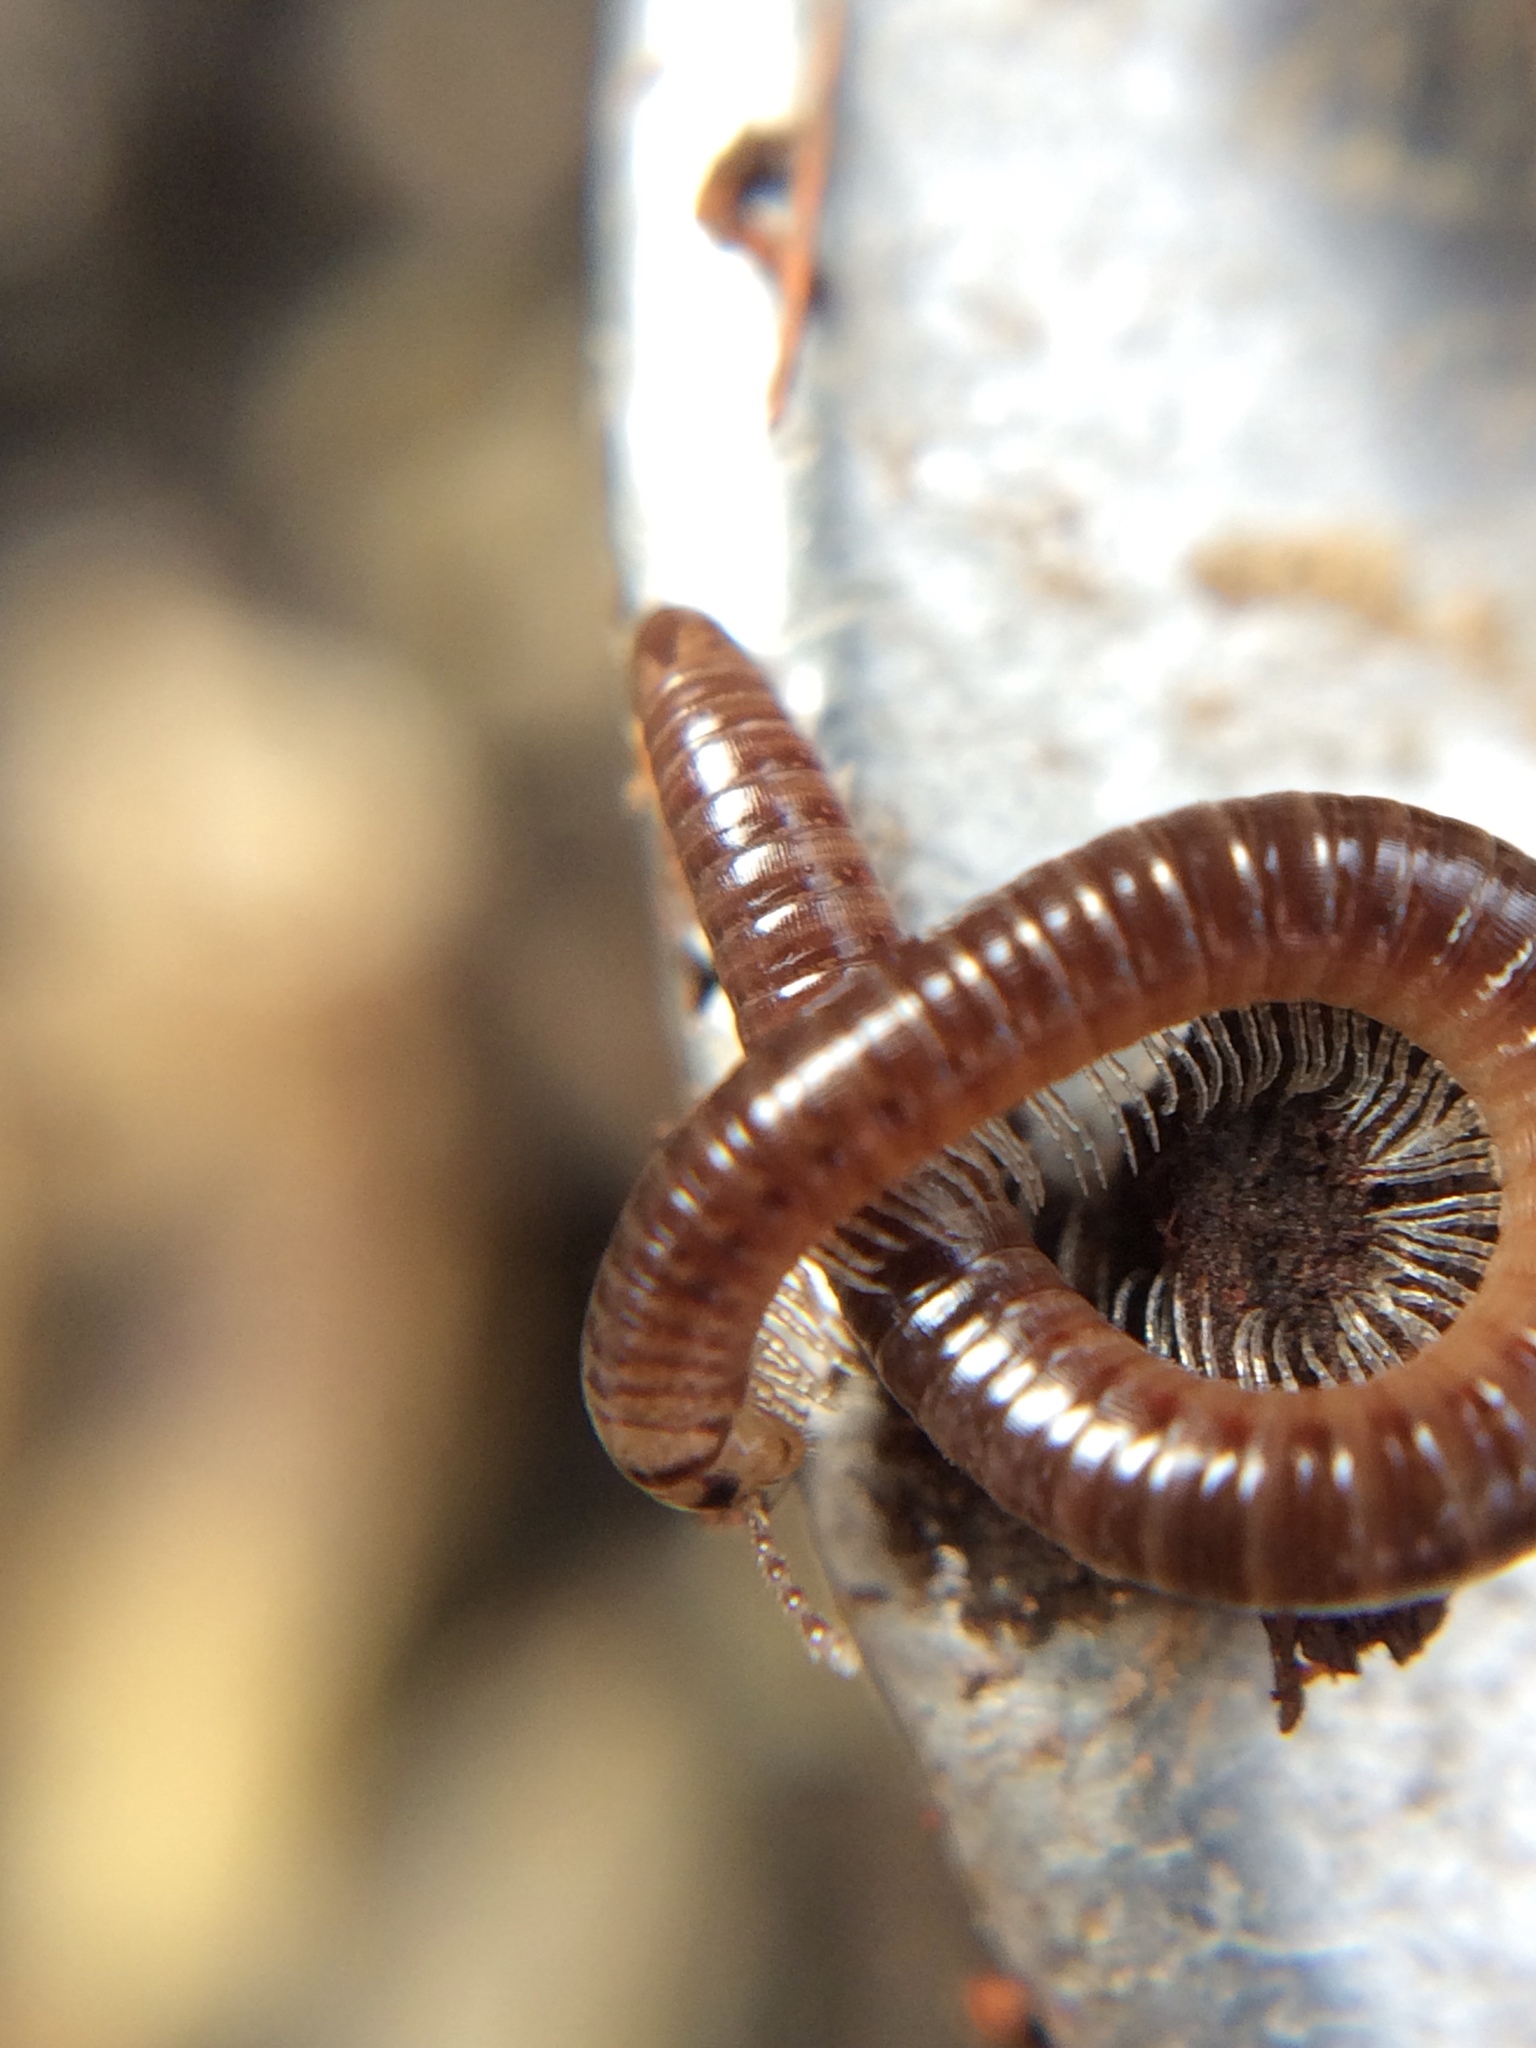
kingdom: Animalia
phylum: Arthropoda
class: Diplopoda
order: Julida
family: Julidae
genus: Ophyiulus
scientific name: Ophyiulus pilosus
